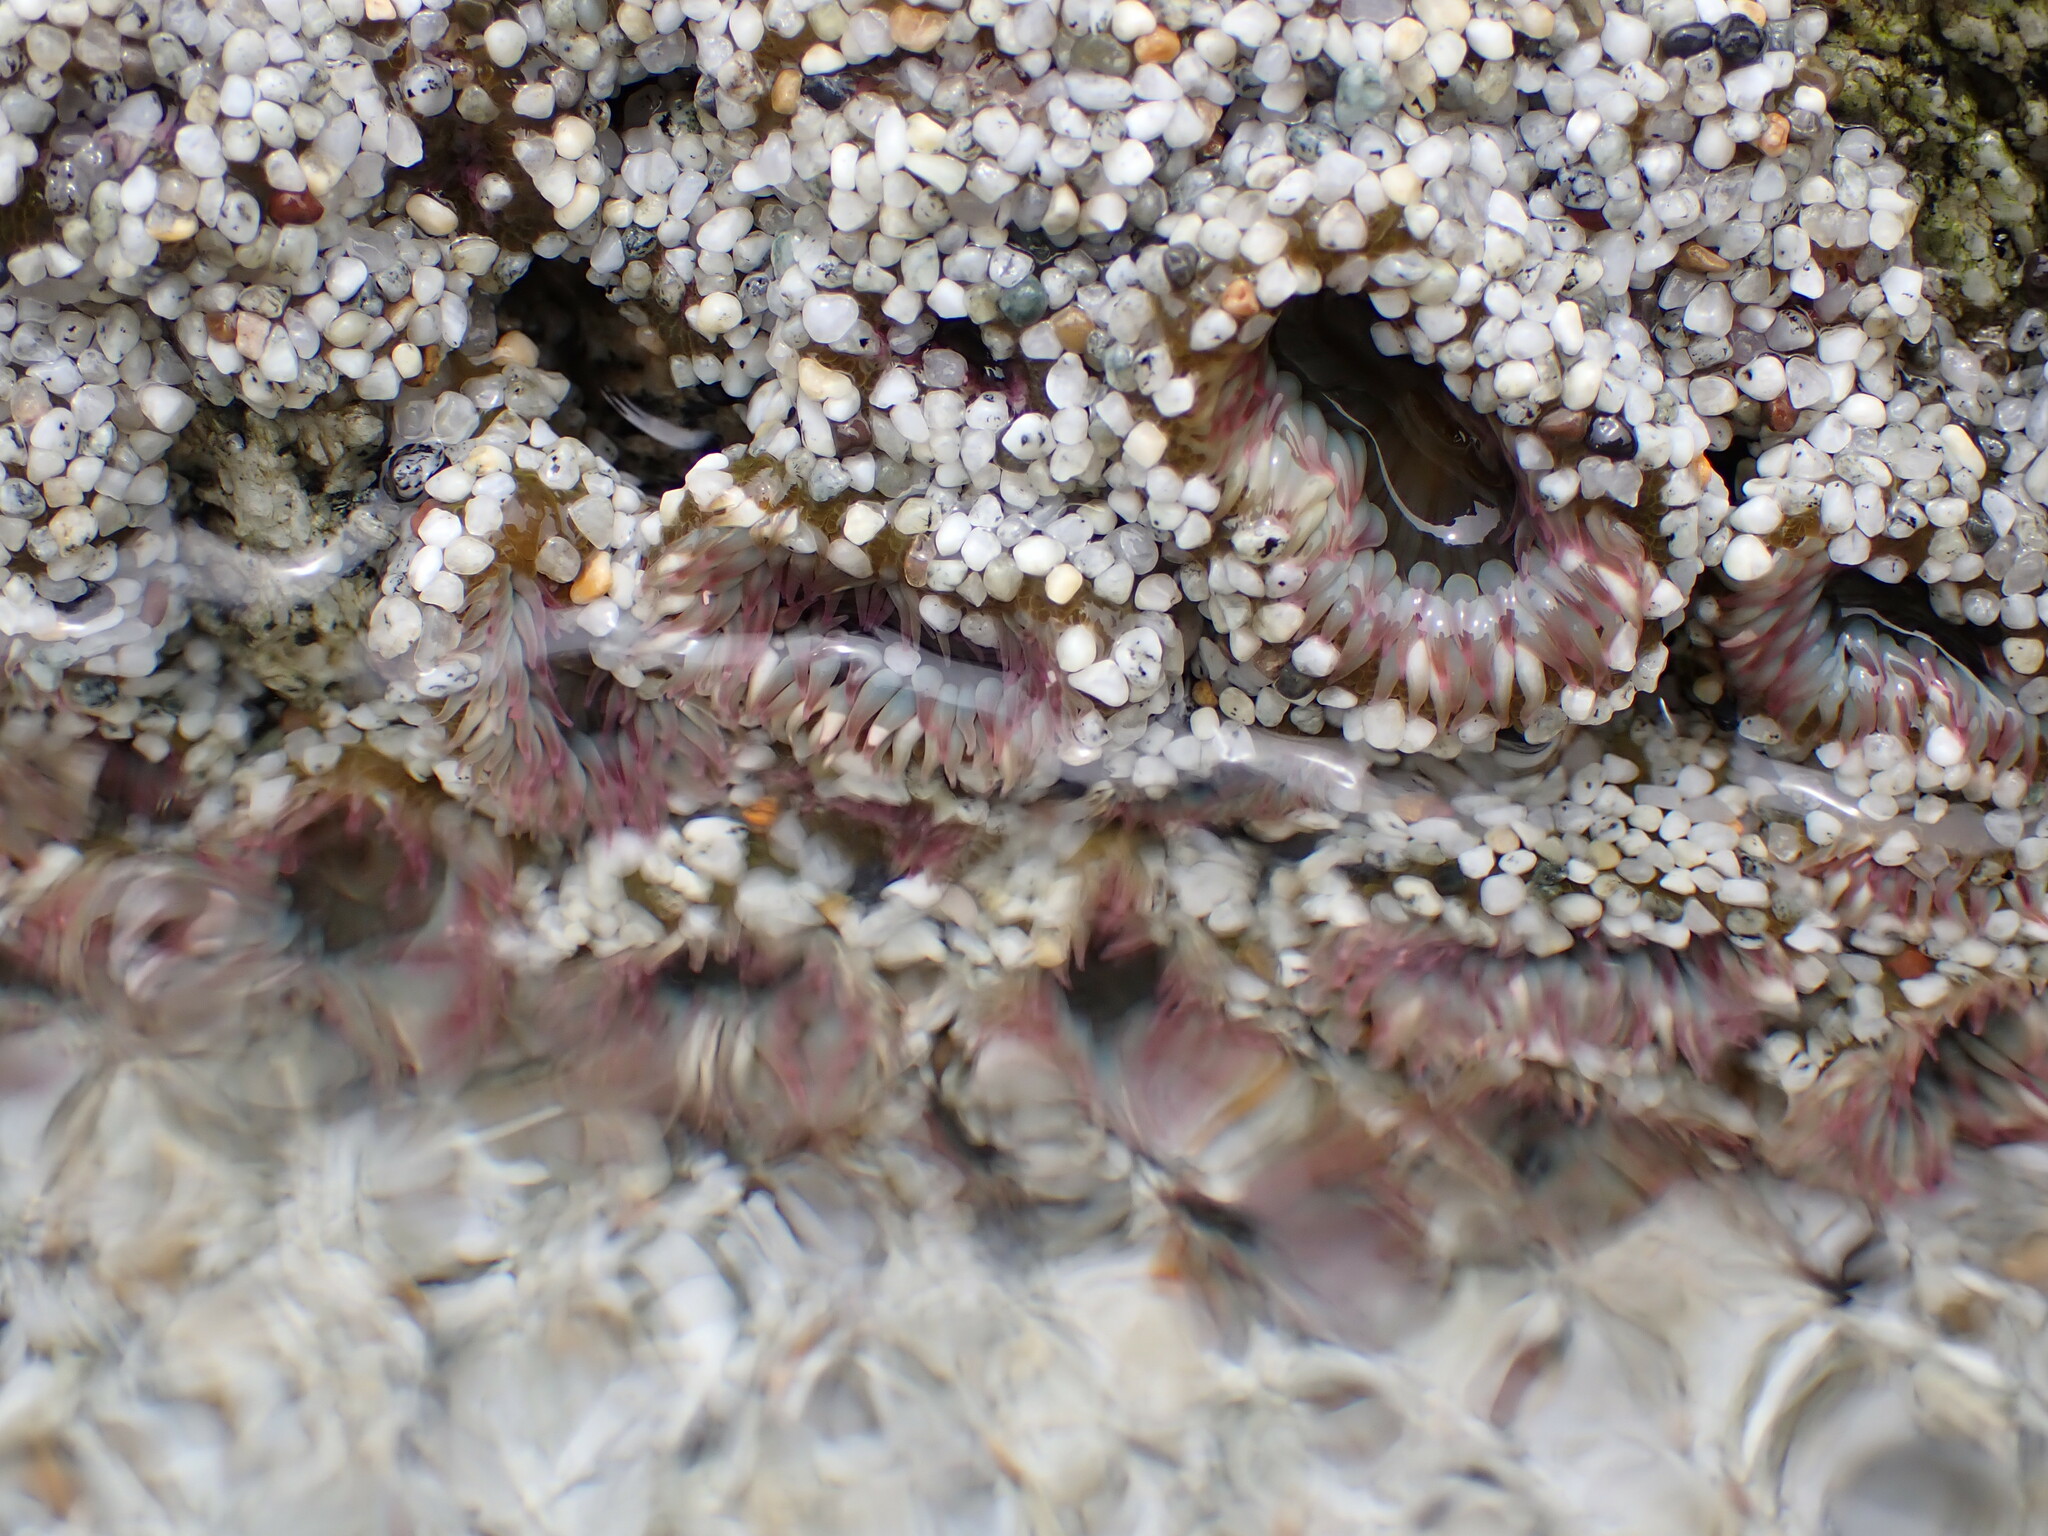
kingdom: Animalia
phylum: Cnidaria
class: Anthozoa
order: Actiniaria
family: Actiniidae
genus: Anthopleura
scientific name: Anthopleura elegantissima
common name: Clonal anemone
